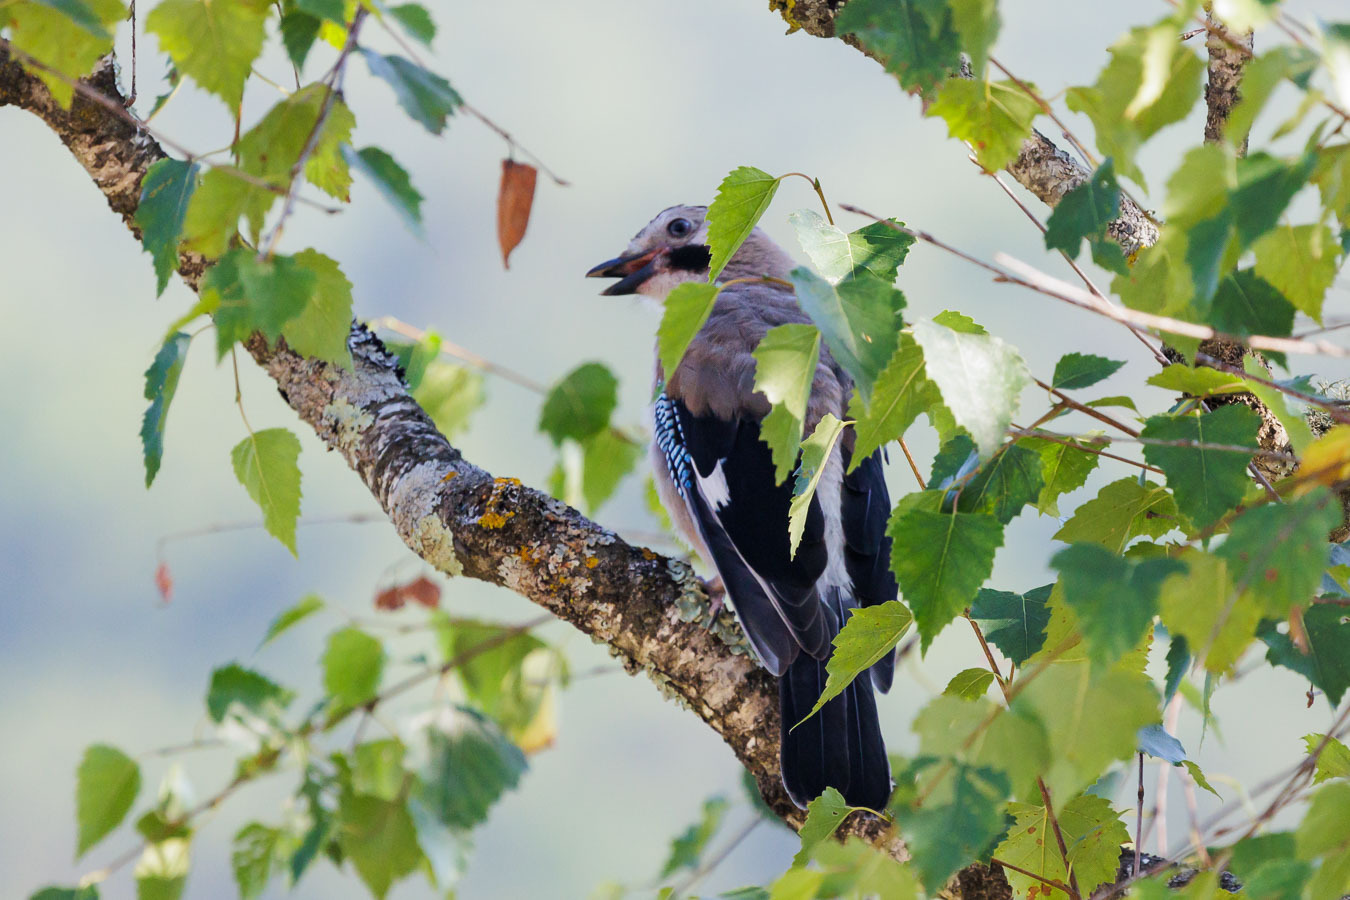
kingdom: Animalia
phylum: Chordata
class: Aves
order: Passeriformes
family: Corvidae
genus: Garrulus
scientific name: Garrulus glandarius
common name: Eurasian jay
